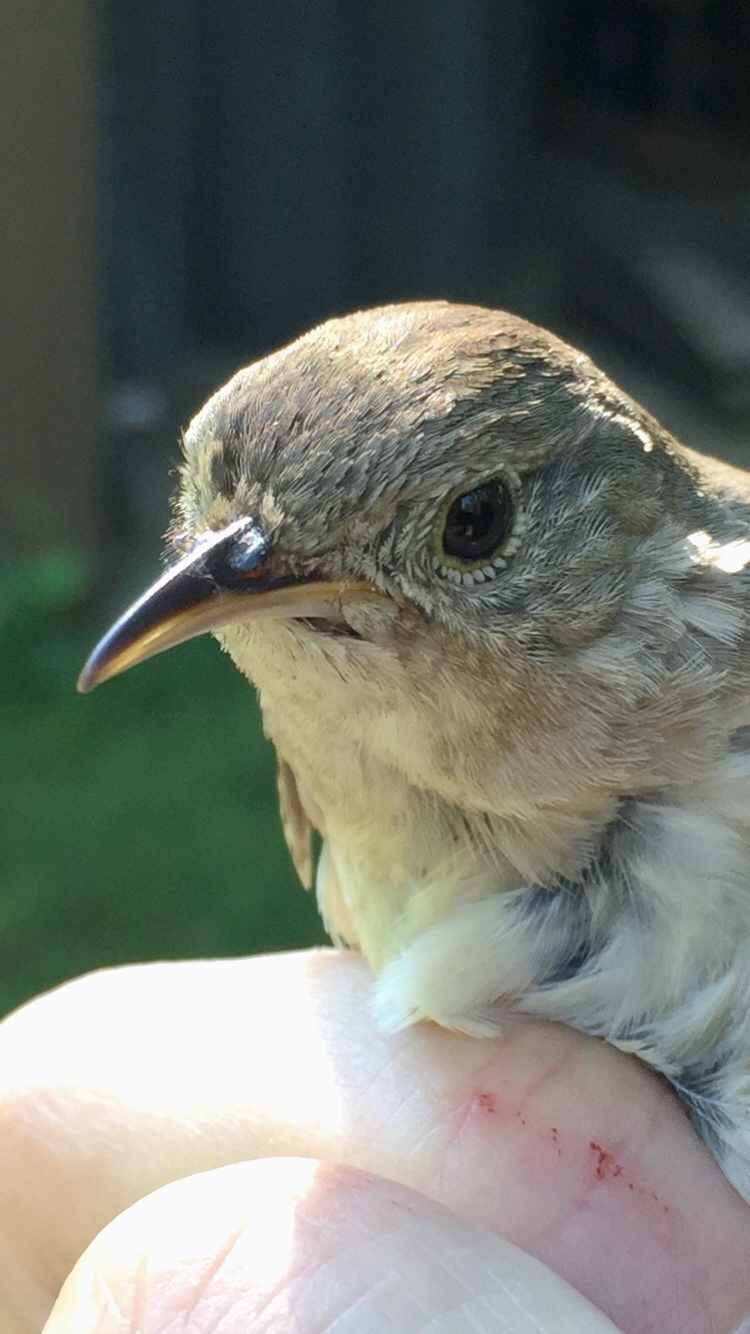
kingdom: Animalia
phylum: Chordata
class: Aves
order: Passeriformes
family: Troglodytidae
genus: Troglodytes
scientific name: Troglodytes aedon
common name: House wren
